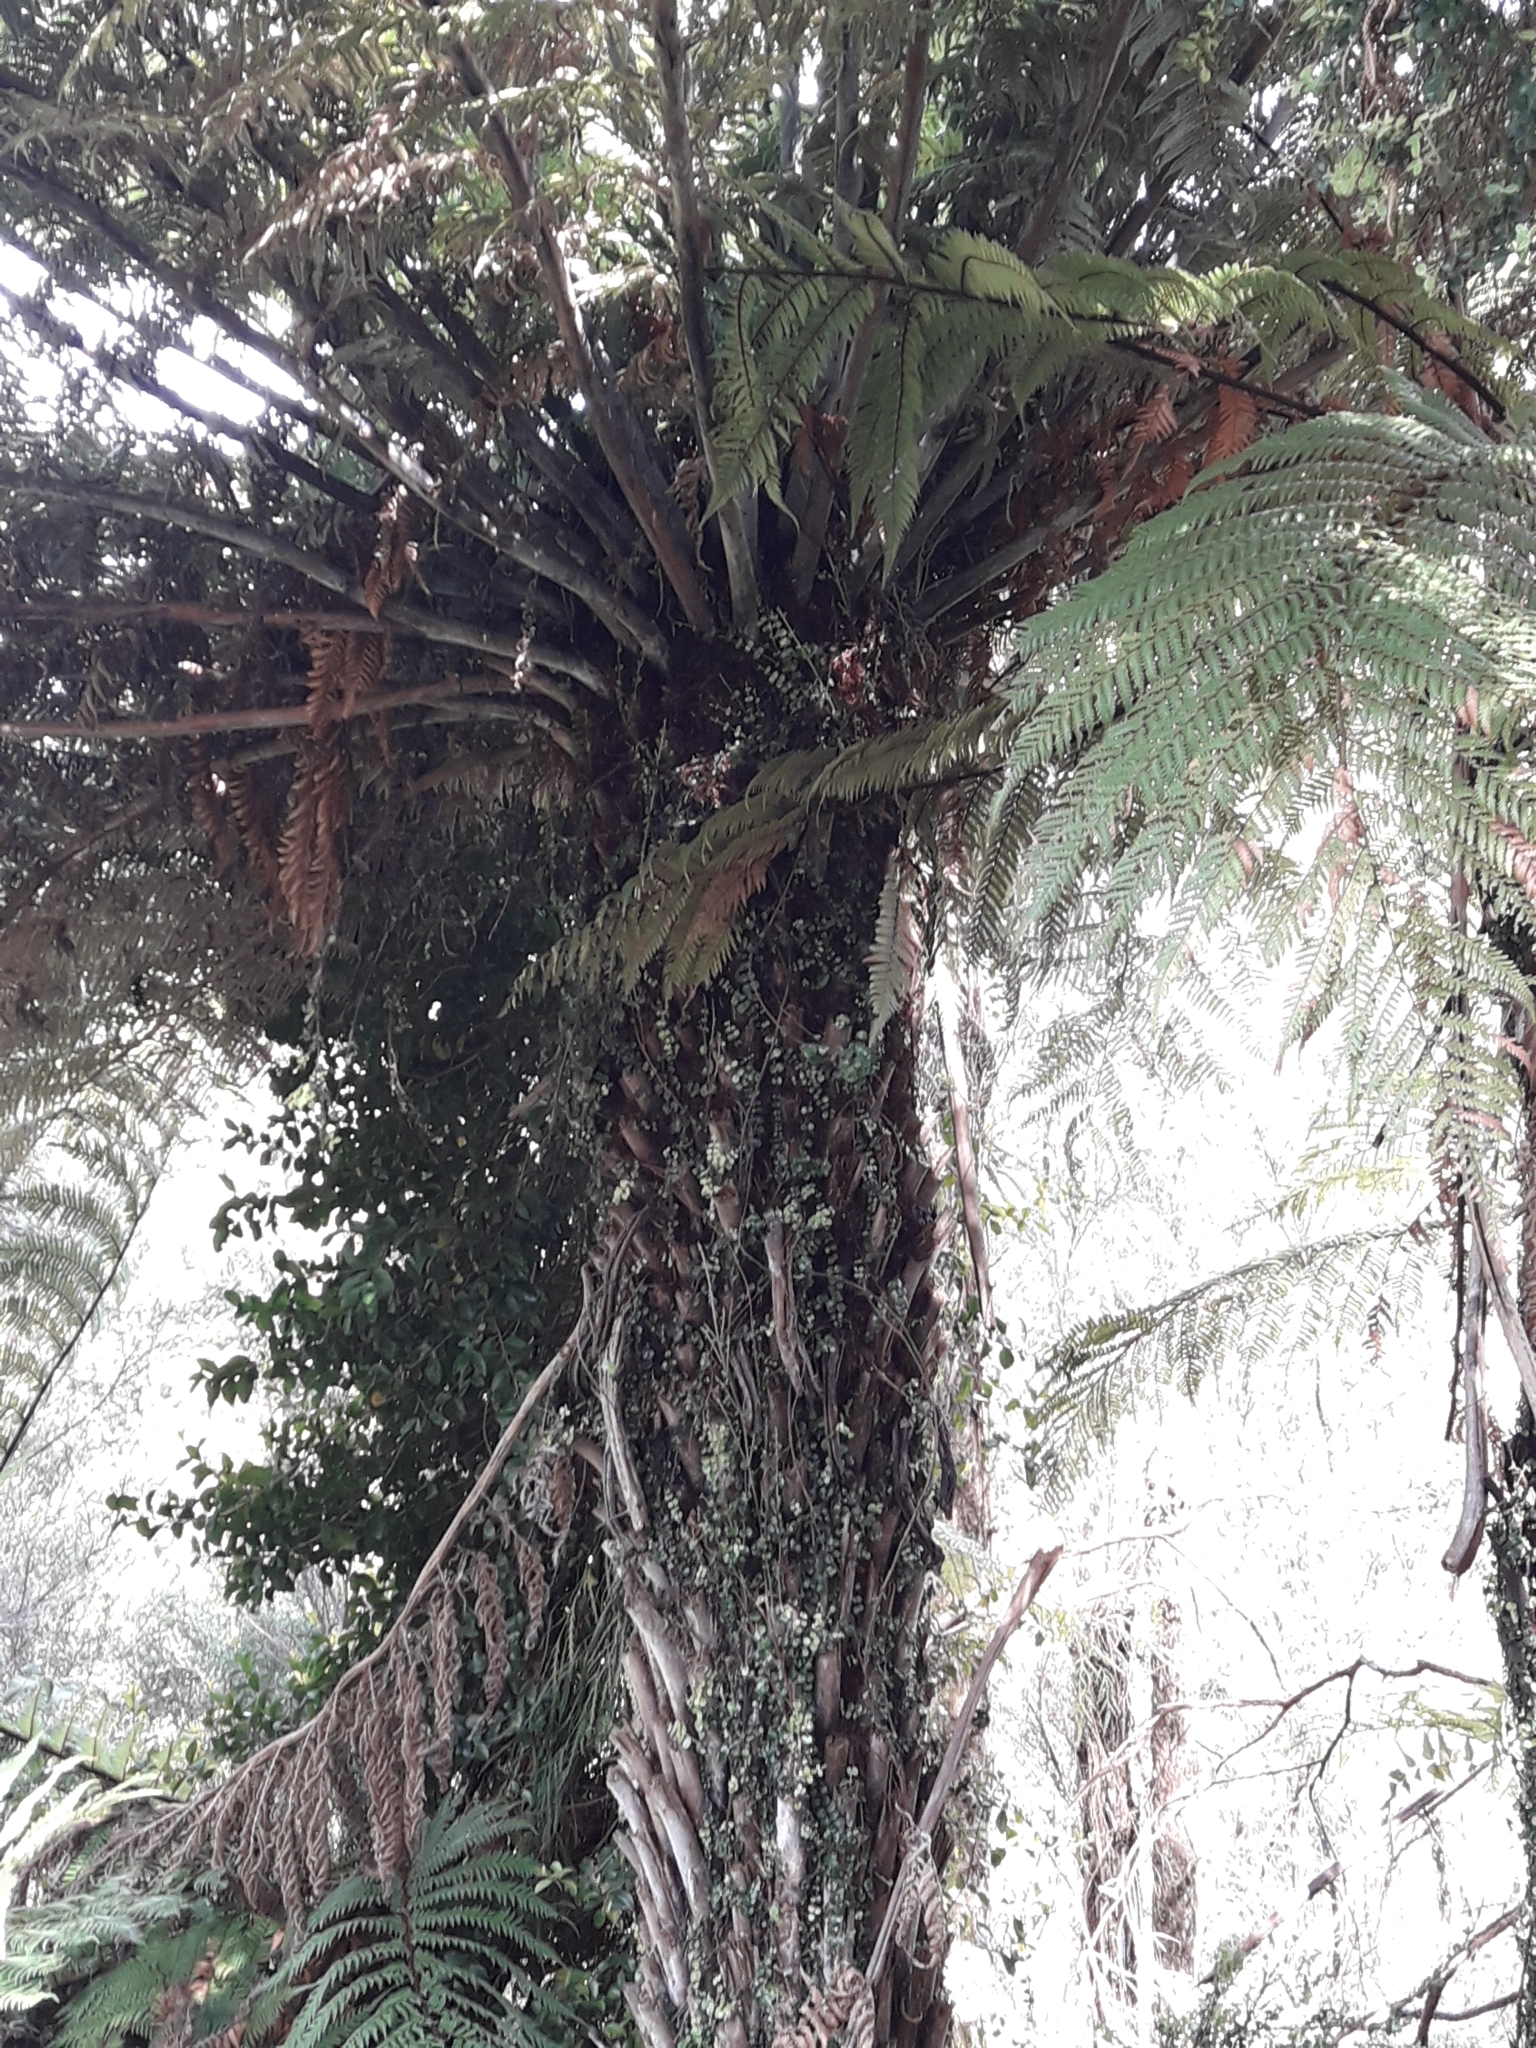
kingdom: Plantae
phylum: Tracheophyta
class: Polypodiopsida
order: Cyatheales
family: Cyatheaceae
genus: Alsophila
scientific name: Alsophila dealbata
